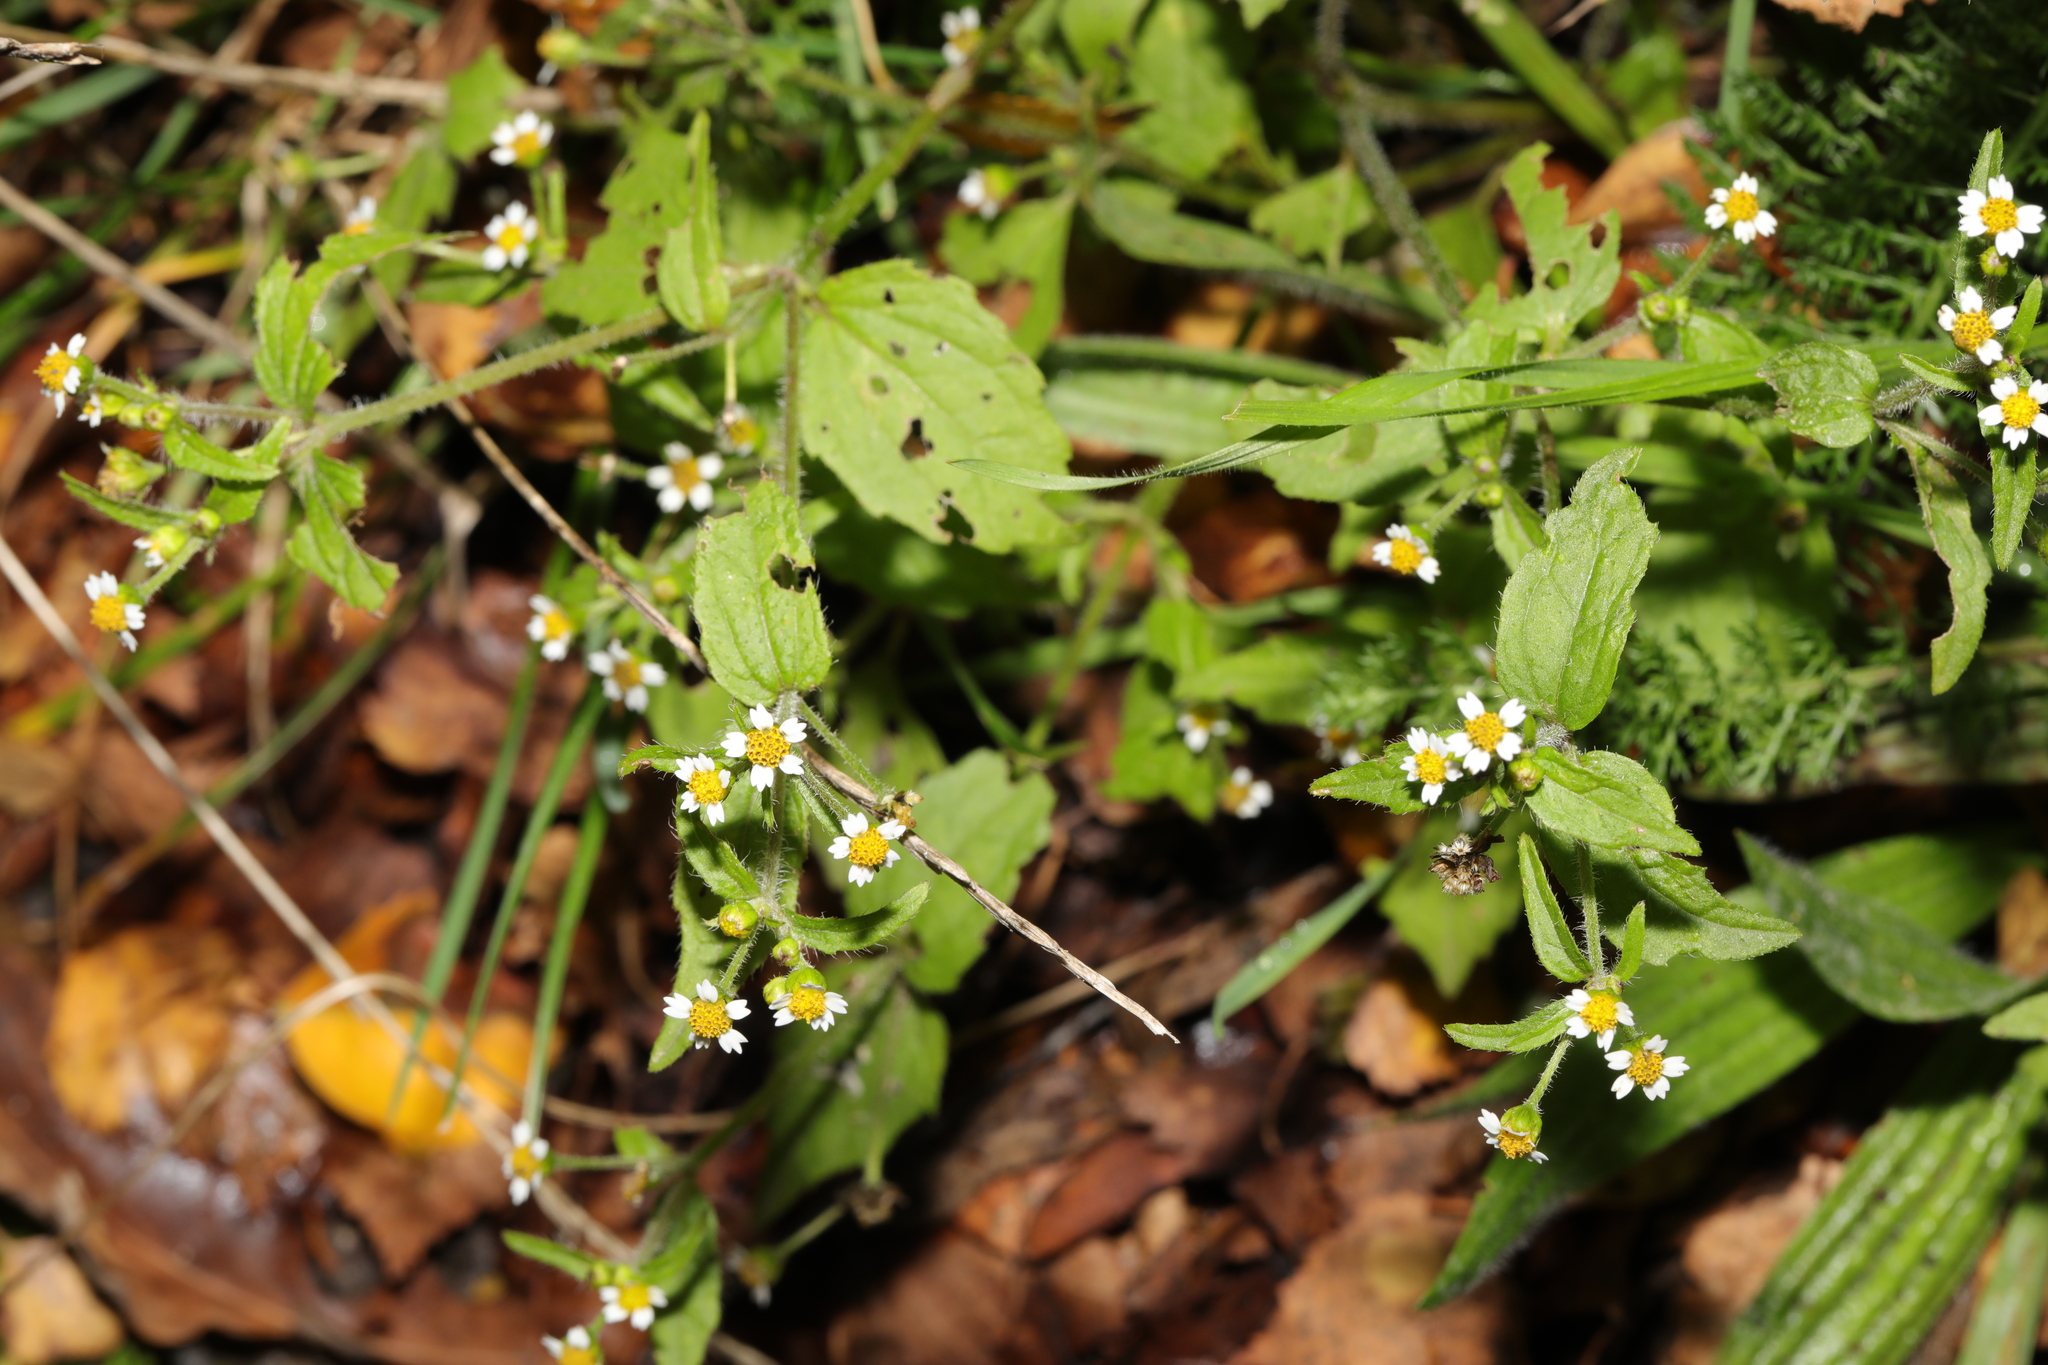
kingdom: Plantae
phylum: Tracheophyta
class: Magnoliopsida
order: Asterales
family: Asteraceae
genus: Galinsoga
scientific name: Galinsoga quadriradiata
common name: Shaggy soldier
